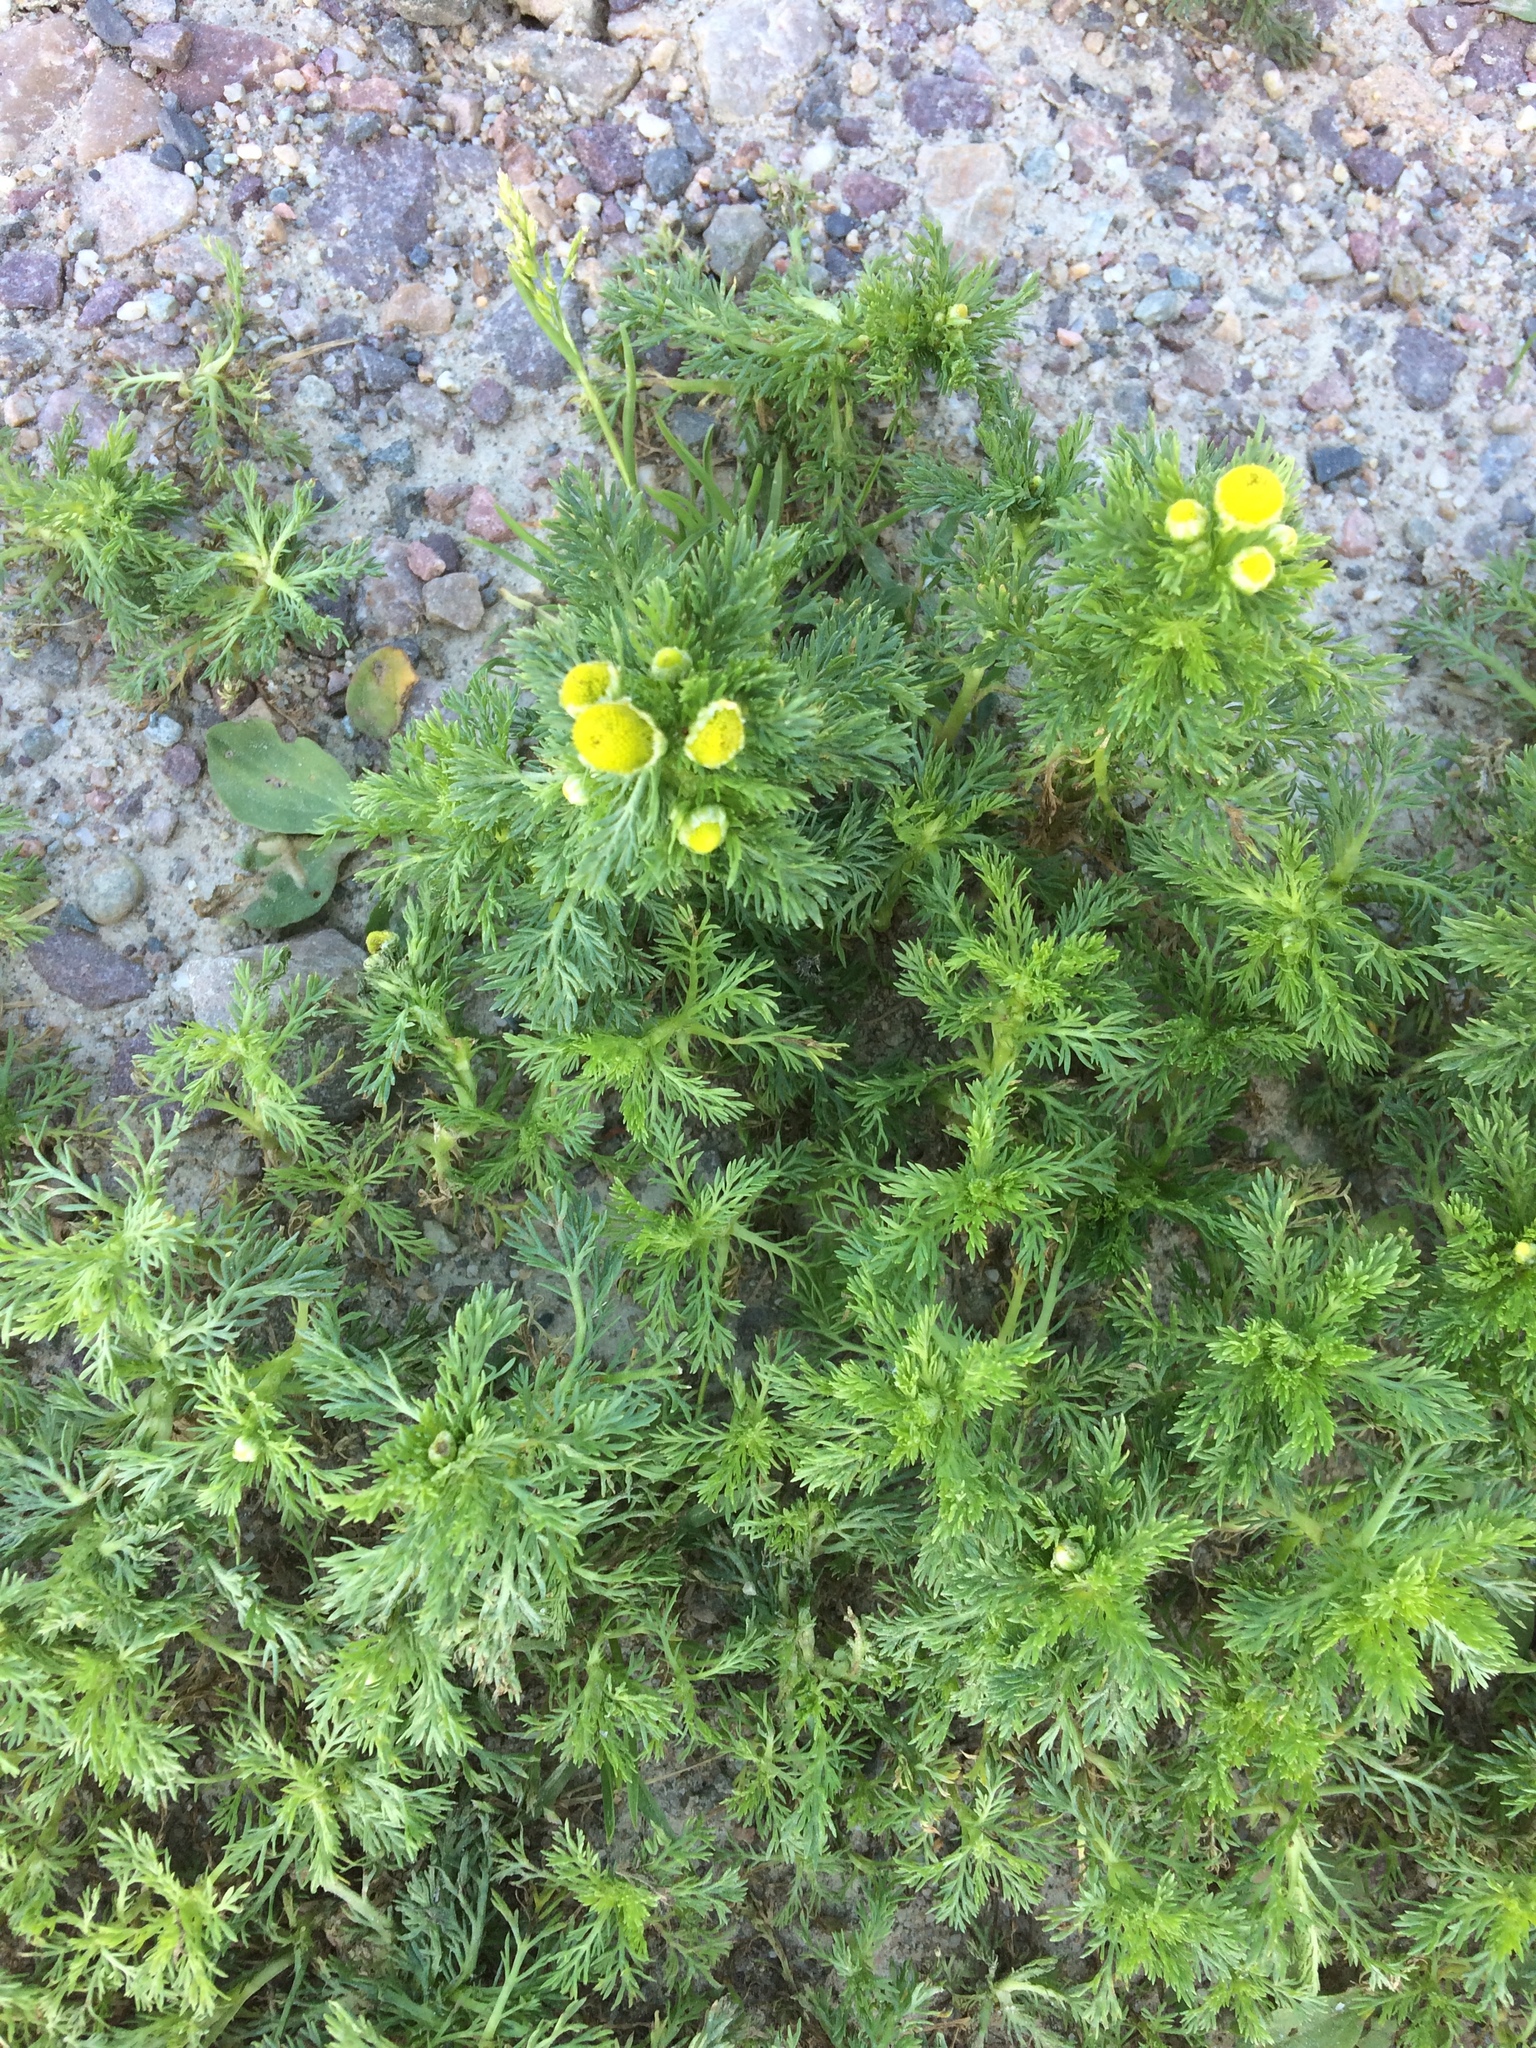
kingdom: Plantae
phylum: Tracheophyta
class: Magnoliopsida
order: Asterales
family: Asteraceae
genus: Matricaria
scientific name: Matricaria discoidea
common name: Disc mayweed
